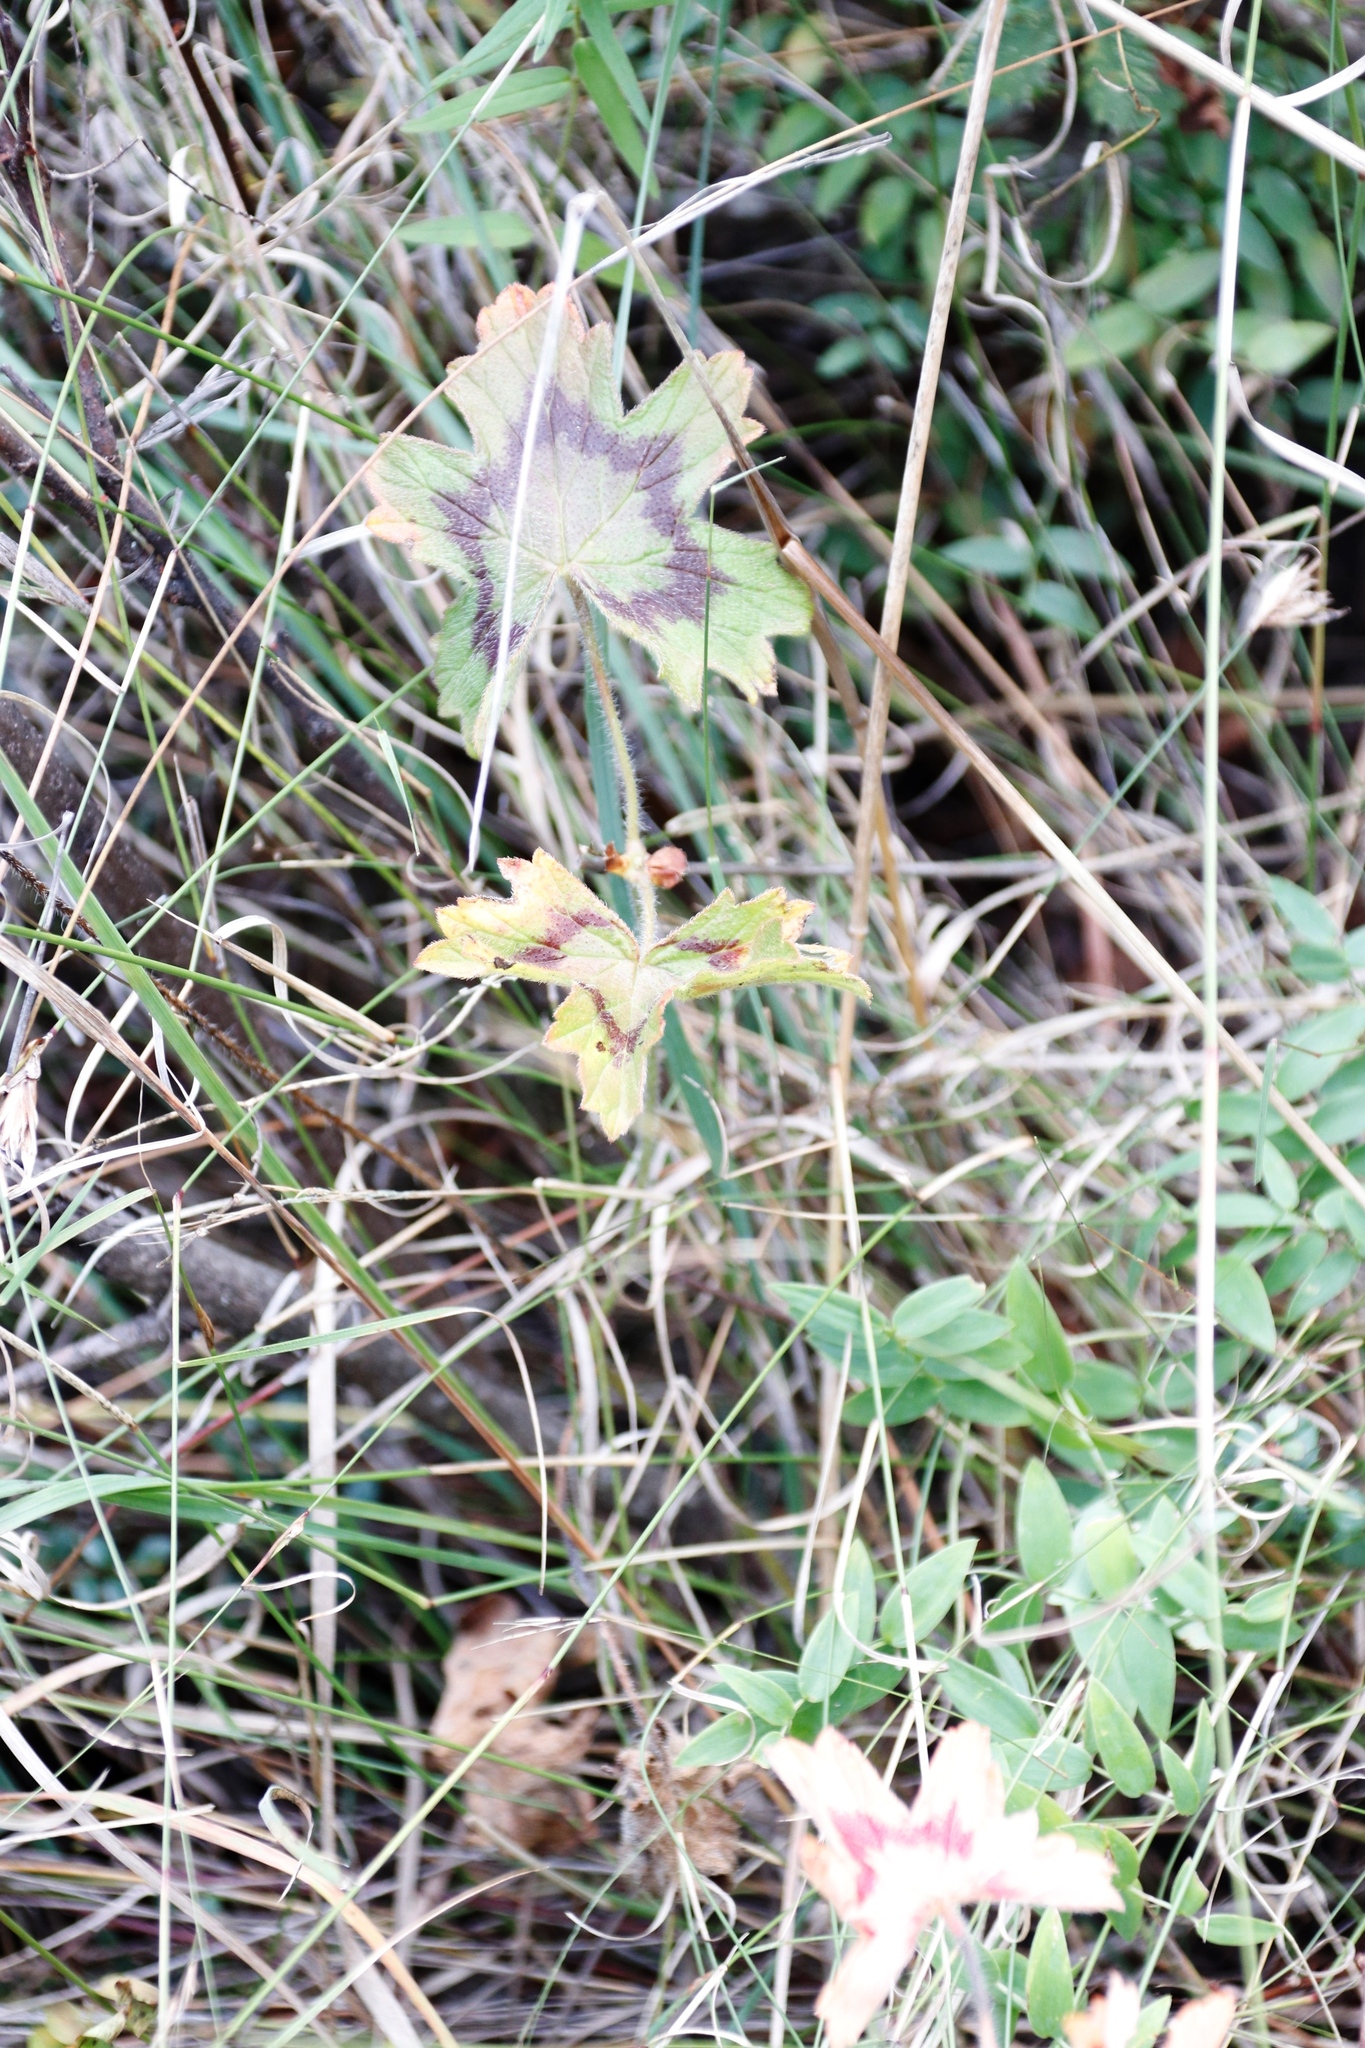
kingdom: Plantae
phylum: Tracheophyta
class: Magnoliopsida
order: Geraniales
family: Geraniaceae
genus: Pelargonium
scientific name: Pelargonium ranunculophyllum
